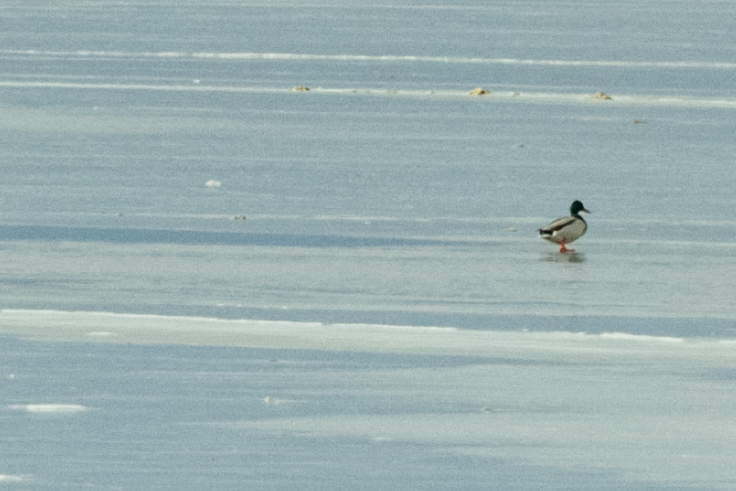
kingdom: Animalia
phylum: Chordata
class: Aves
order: Anseriformes
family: Anatidae
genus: Anas
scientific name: Anas platyrhynchos
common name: Mallard
